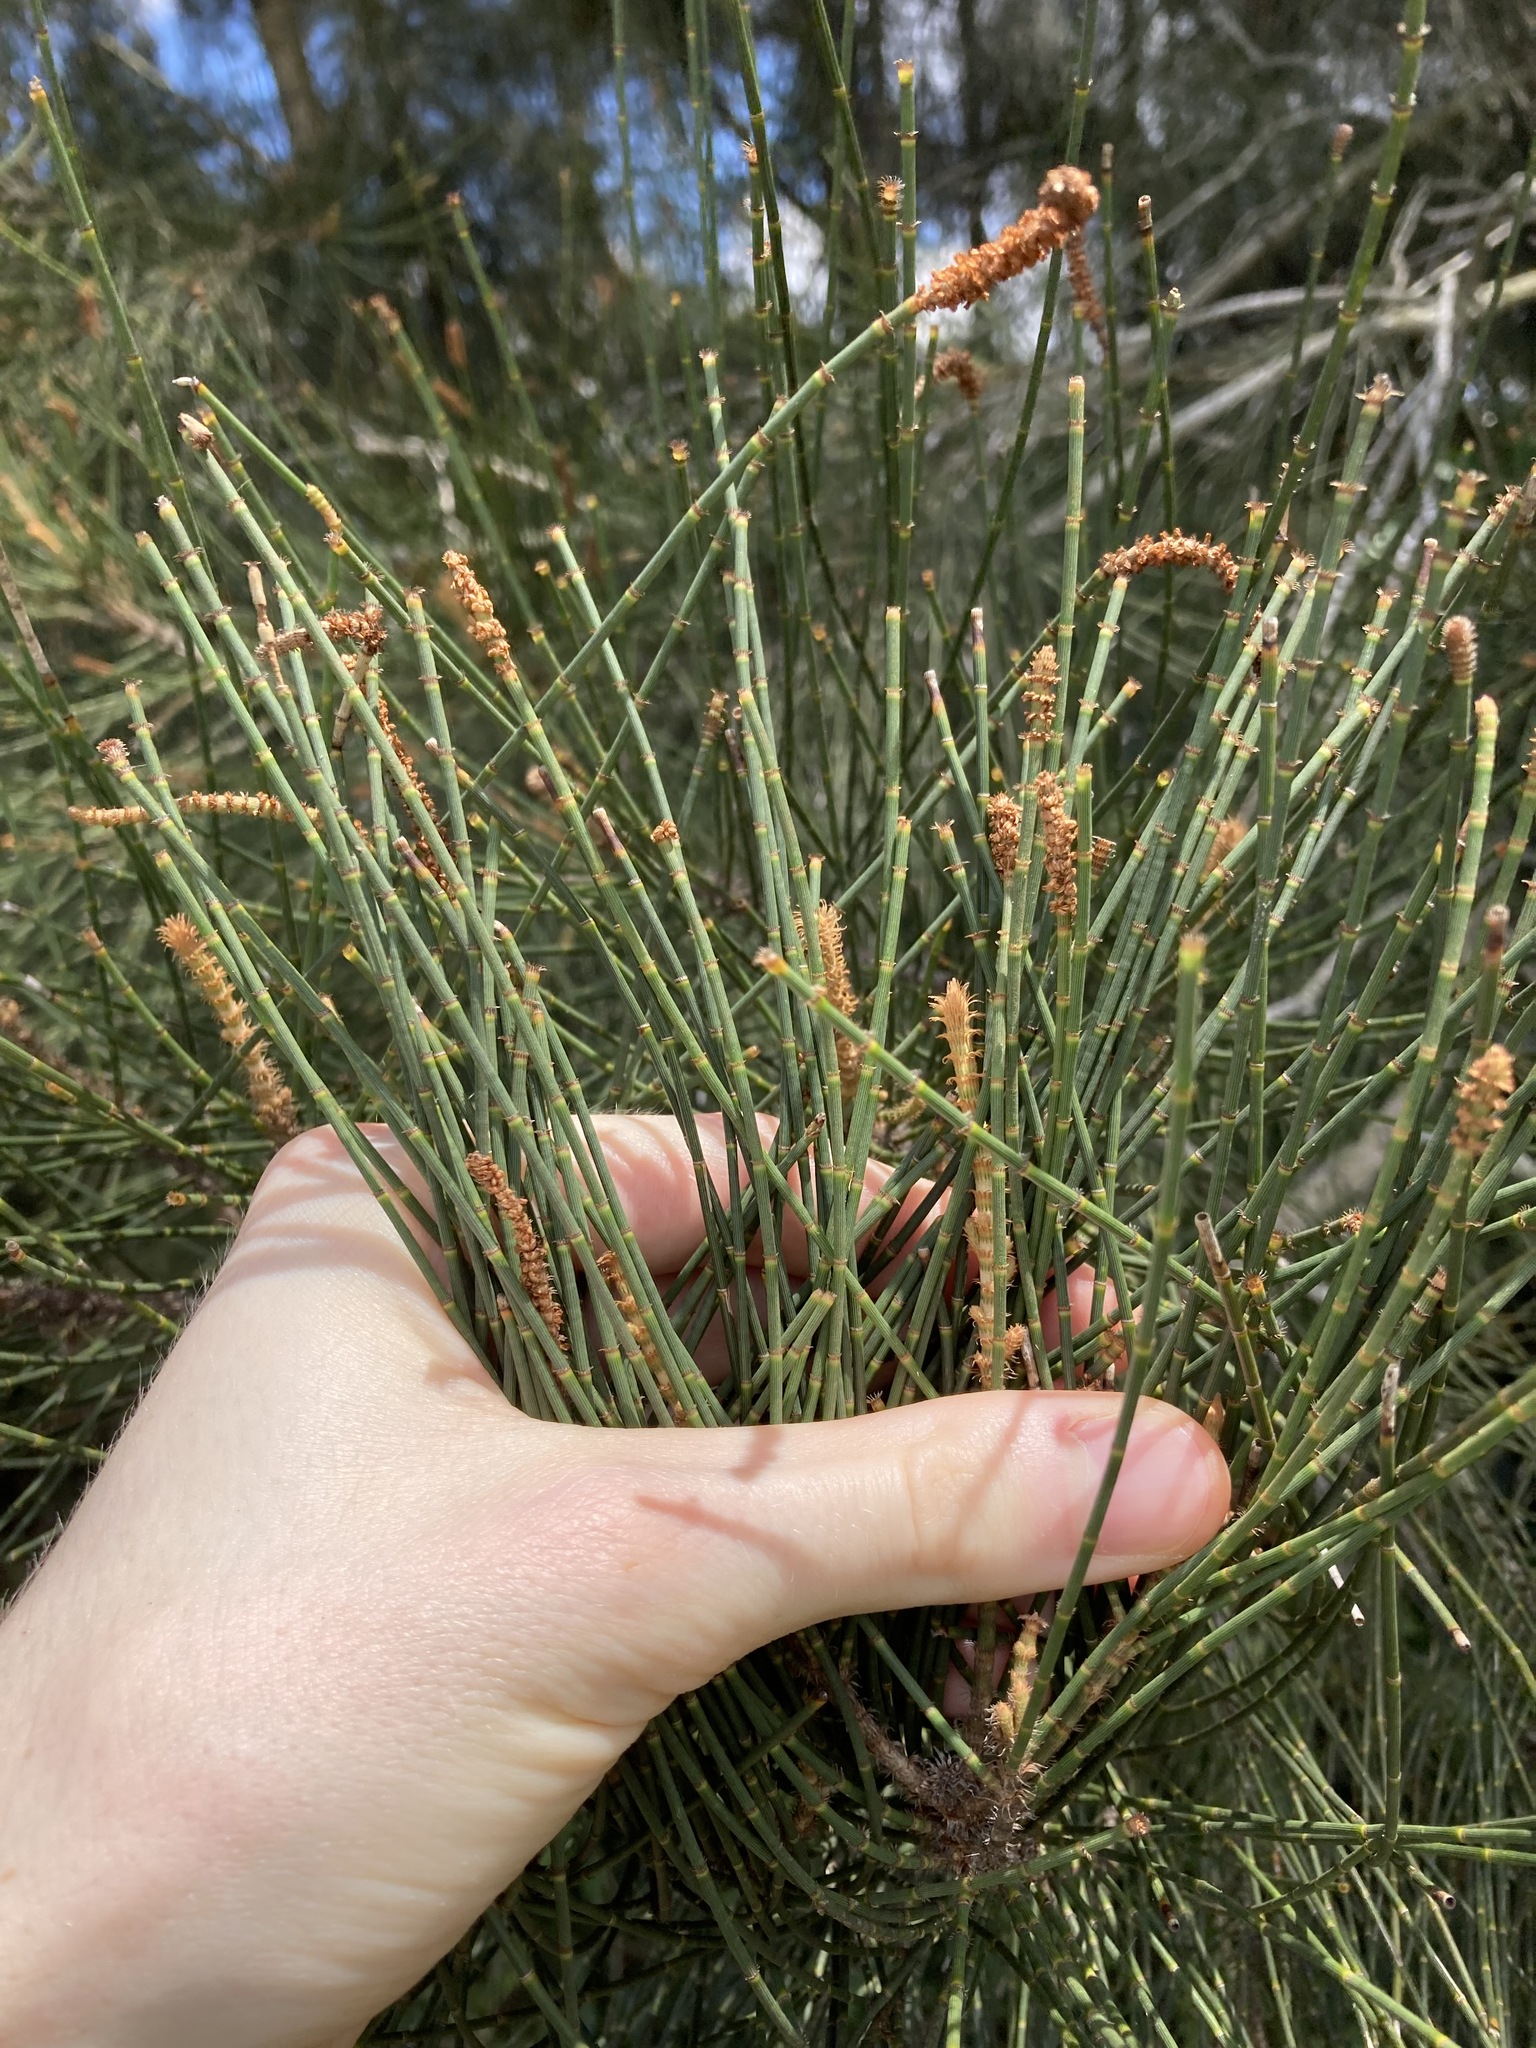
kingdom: Plantae
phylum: Tracheophyta
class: Magnoliopsida
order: Fagales
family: Casuarinaceae
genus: Casuarina
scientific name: Casuarina glauca
